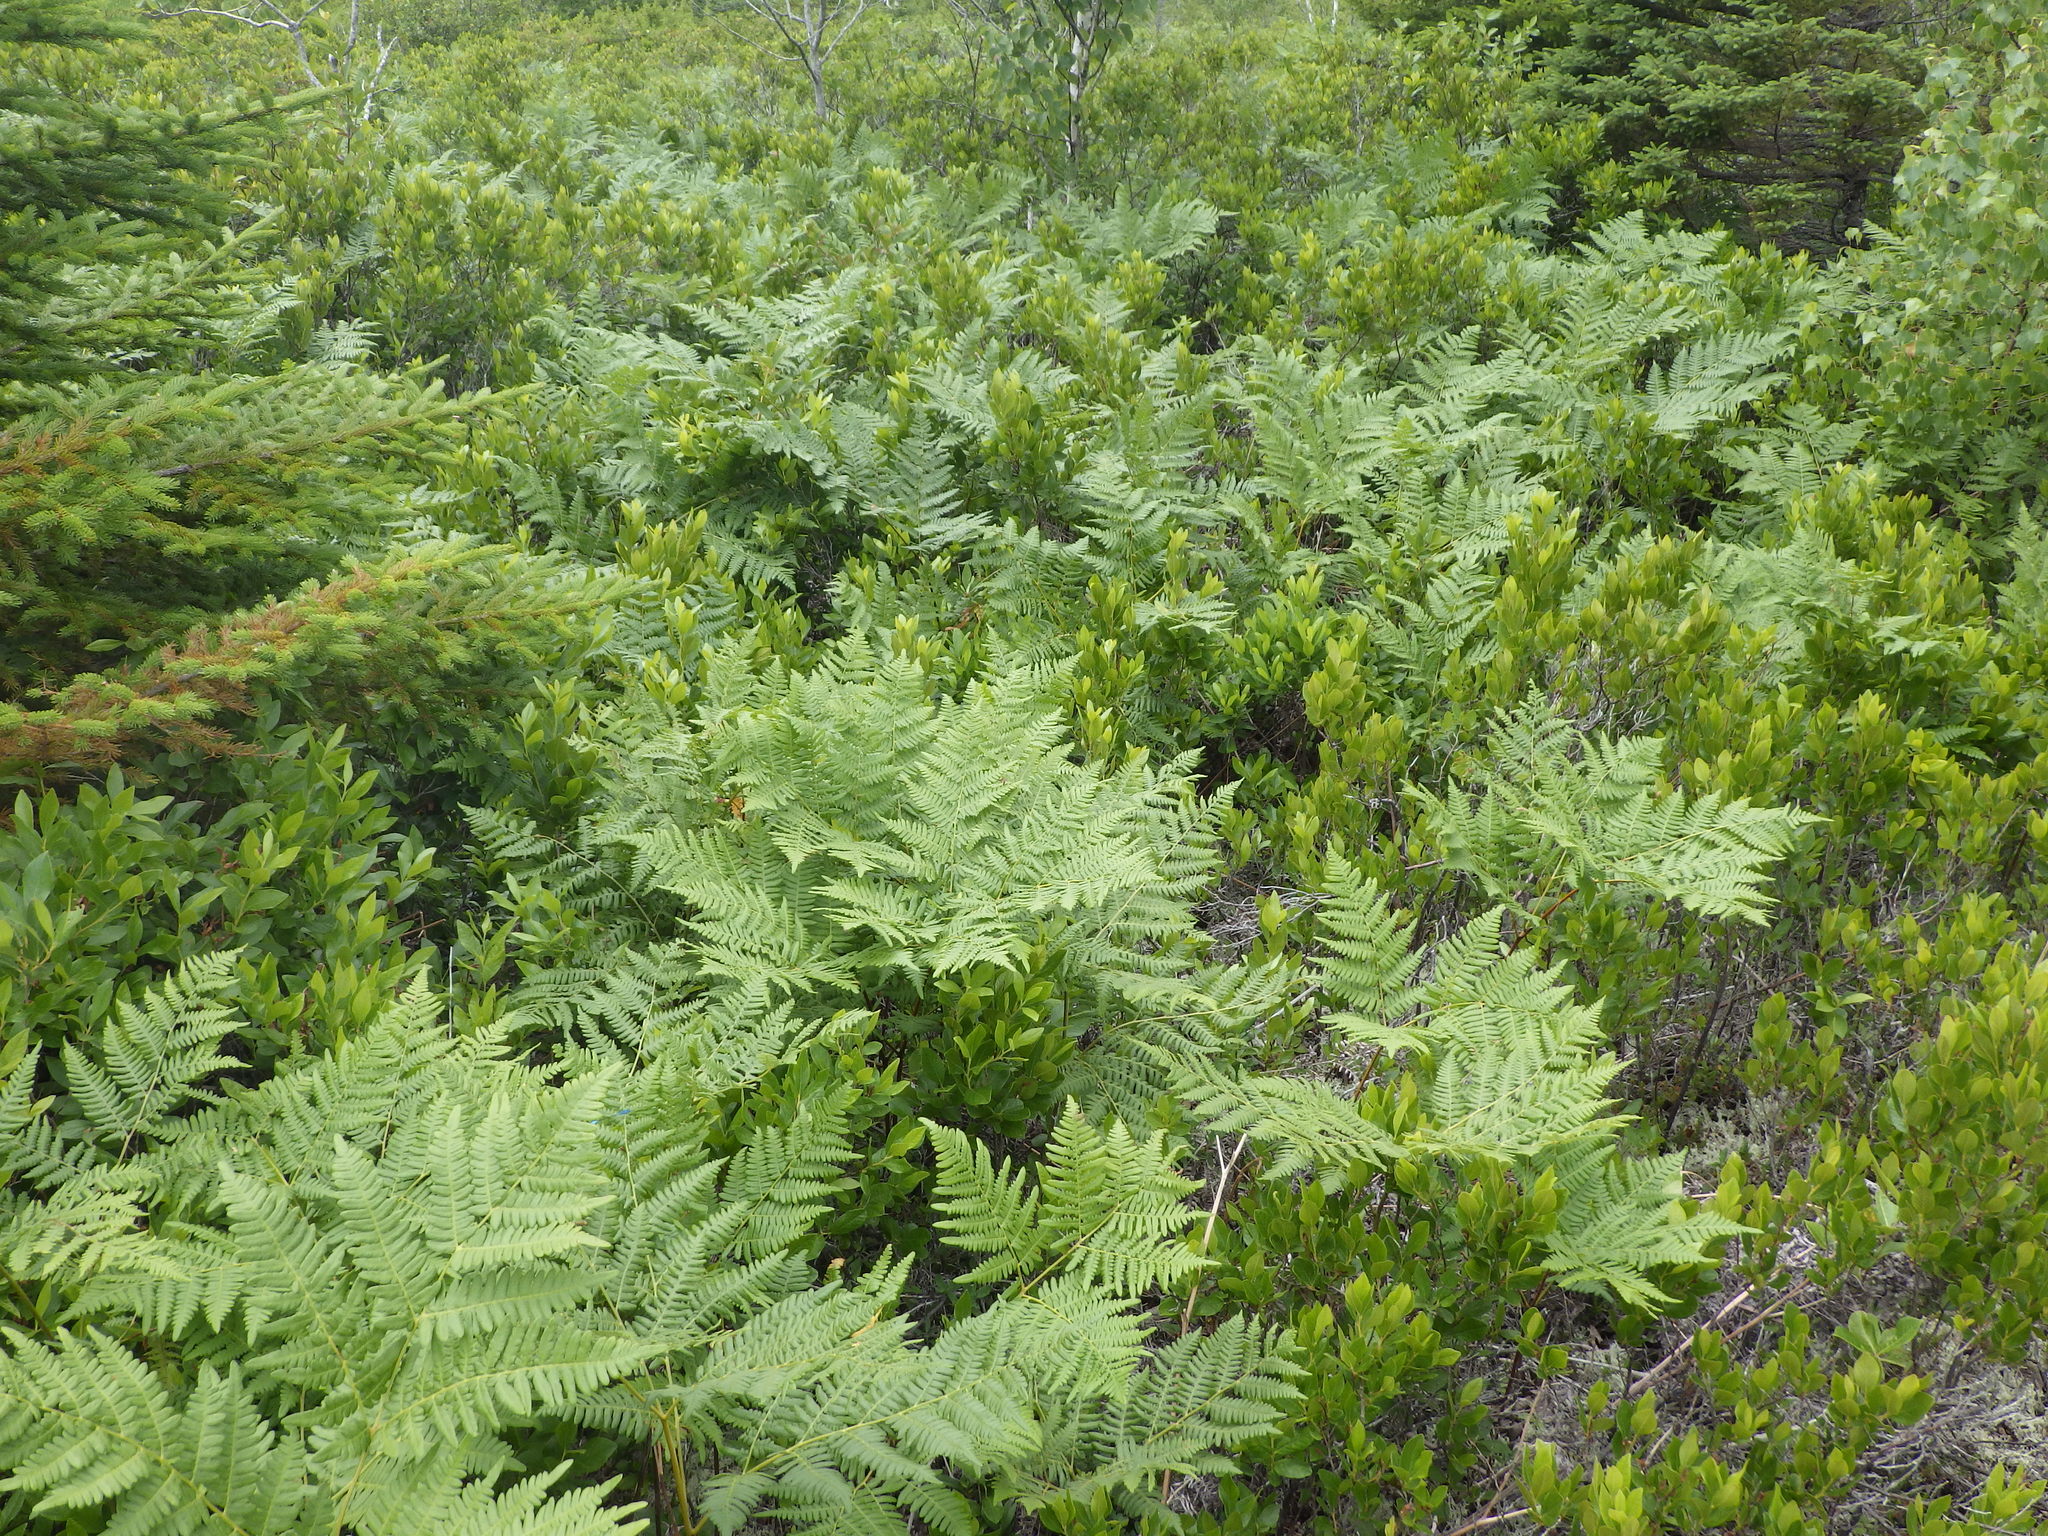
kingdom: Plantae
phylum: Tracheophyta
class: Polypodiopsida
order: Polypodiales
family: Dennstaedtiaceae
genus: Pteridium
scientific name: Pteridium aquilinum
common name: Bracken
